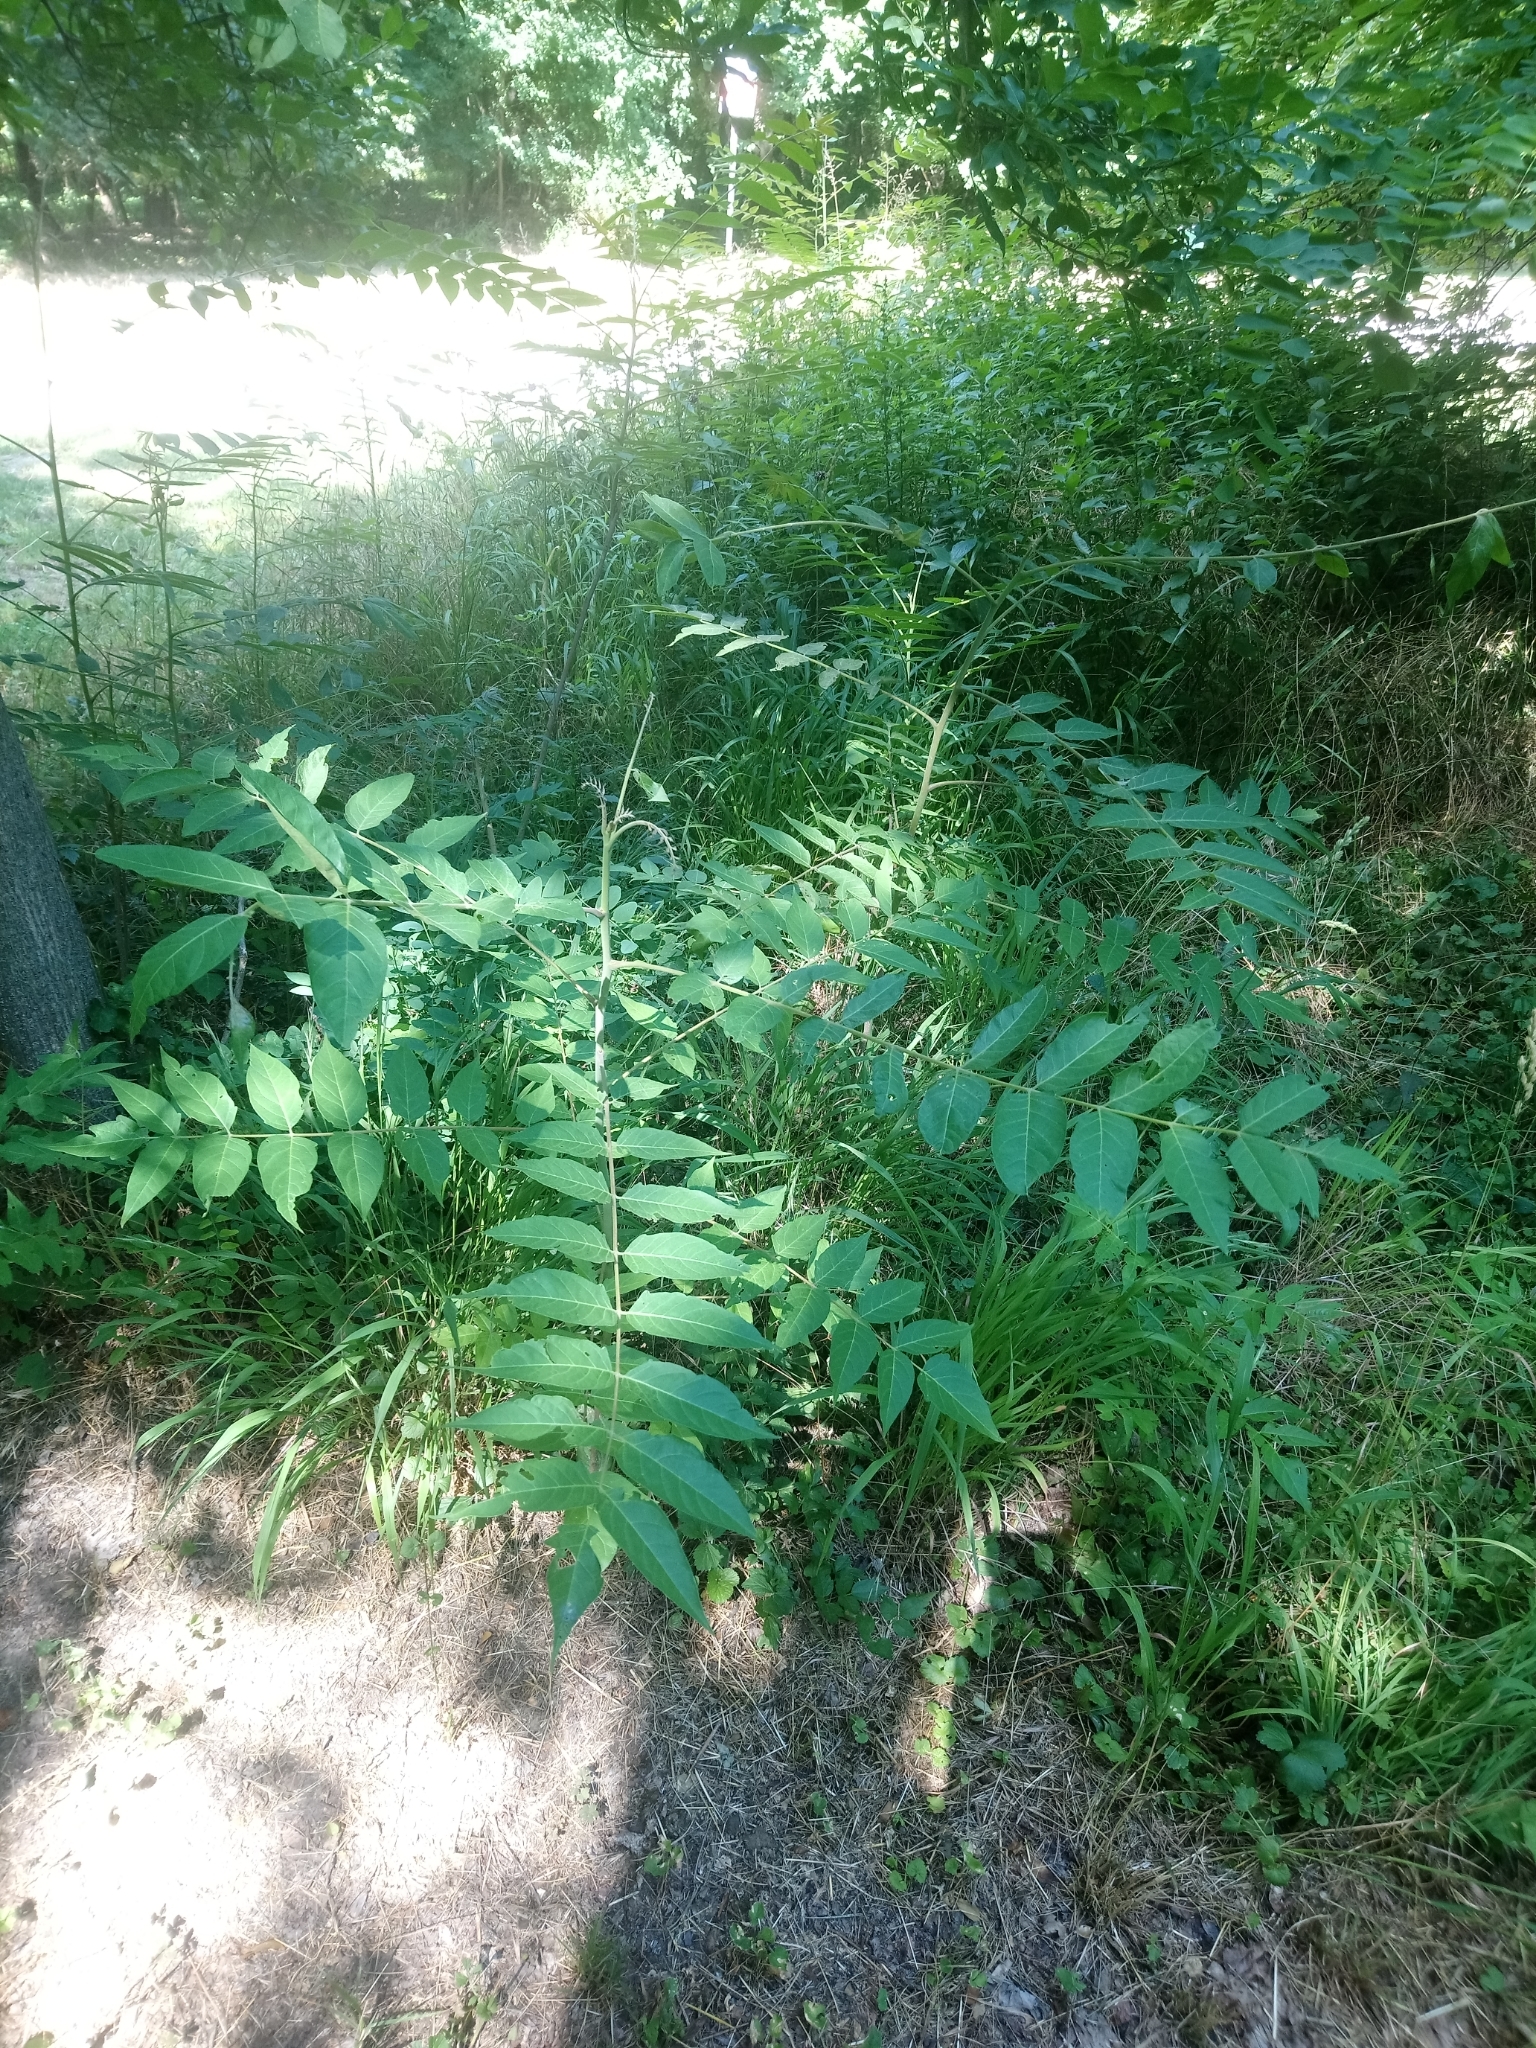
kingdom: Plantae
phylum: Tracheophyta
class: Magnoliopsida
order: Sapindales
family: Simaroubaceae
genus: Ailanthus
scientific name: Ailanthus altissima
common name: Tree-of-heaven
